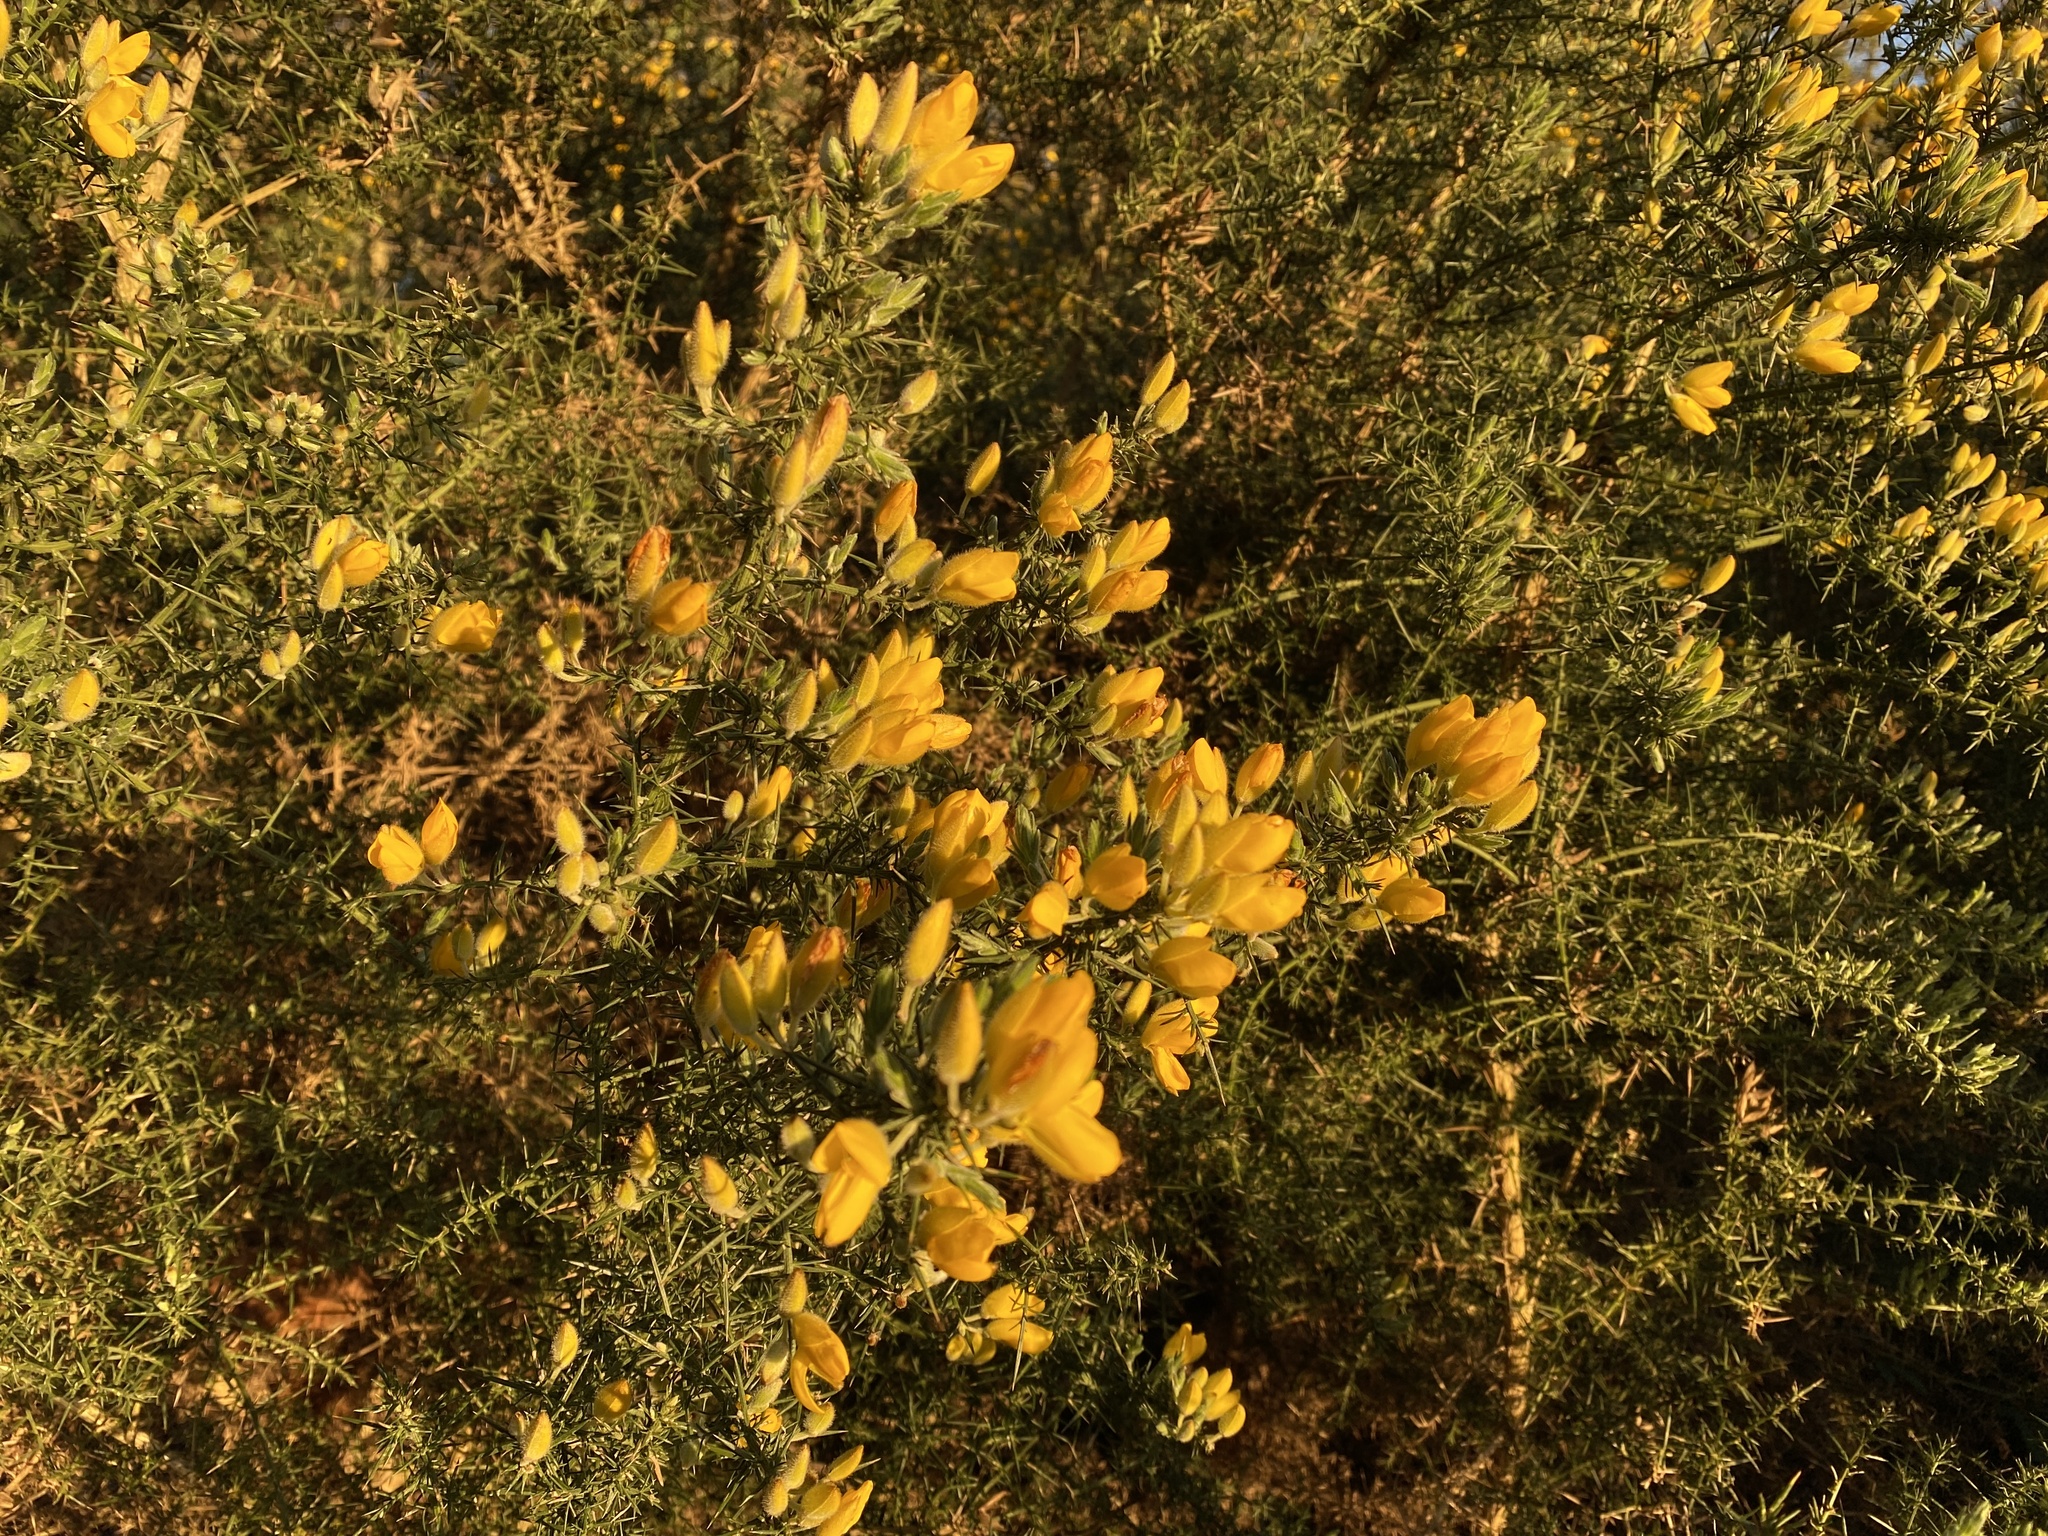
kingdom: Plantae
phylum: Tracheophyta
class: Magnoliopsida
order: Fabales
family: Fabaceae
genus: Ulex
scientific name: Ulex europaeus
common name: Common gorse
